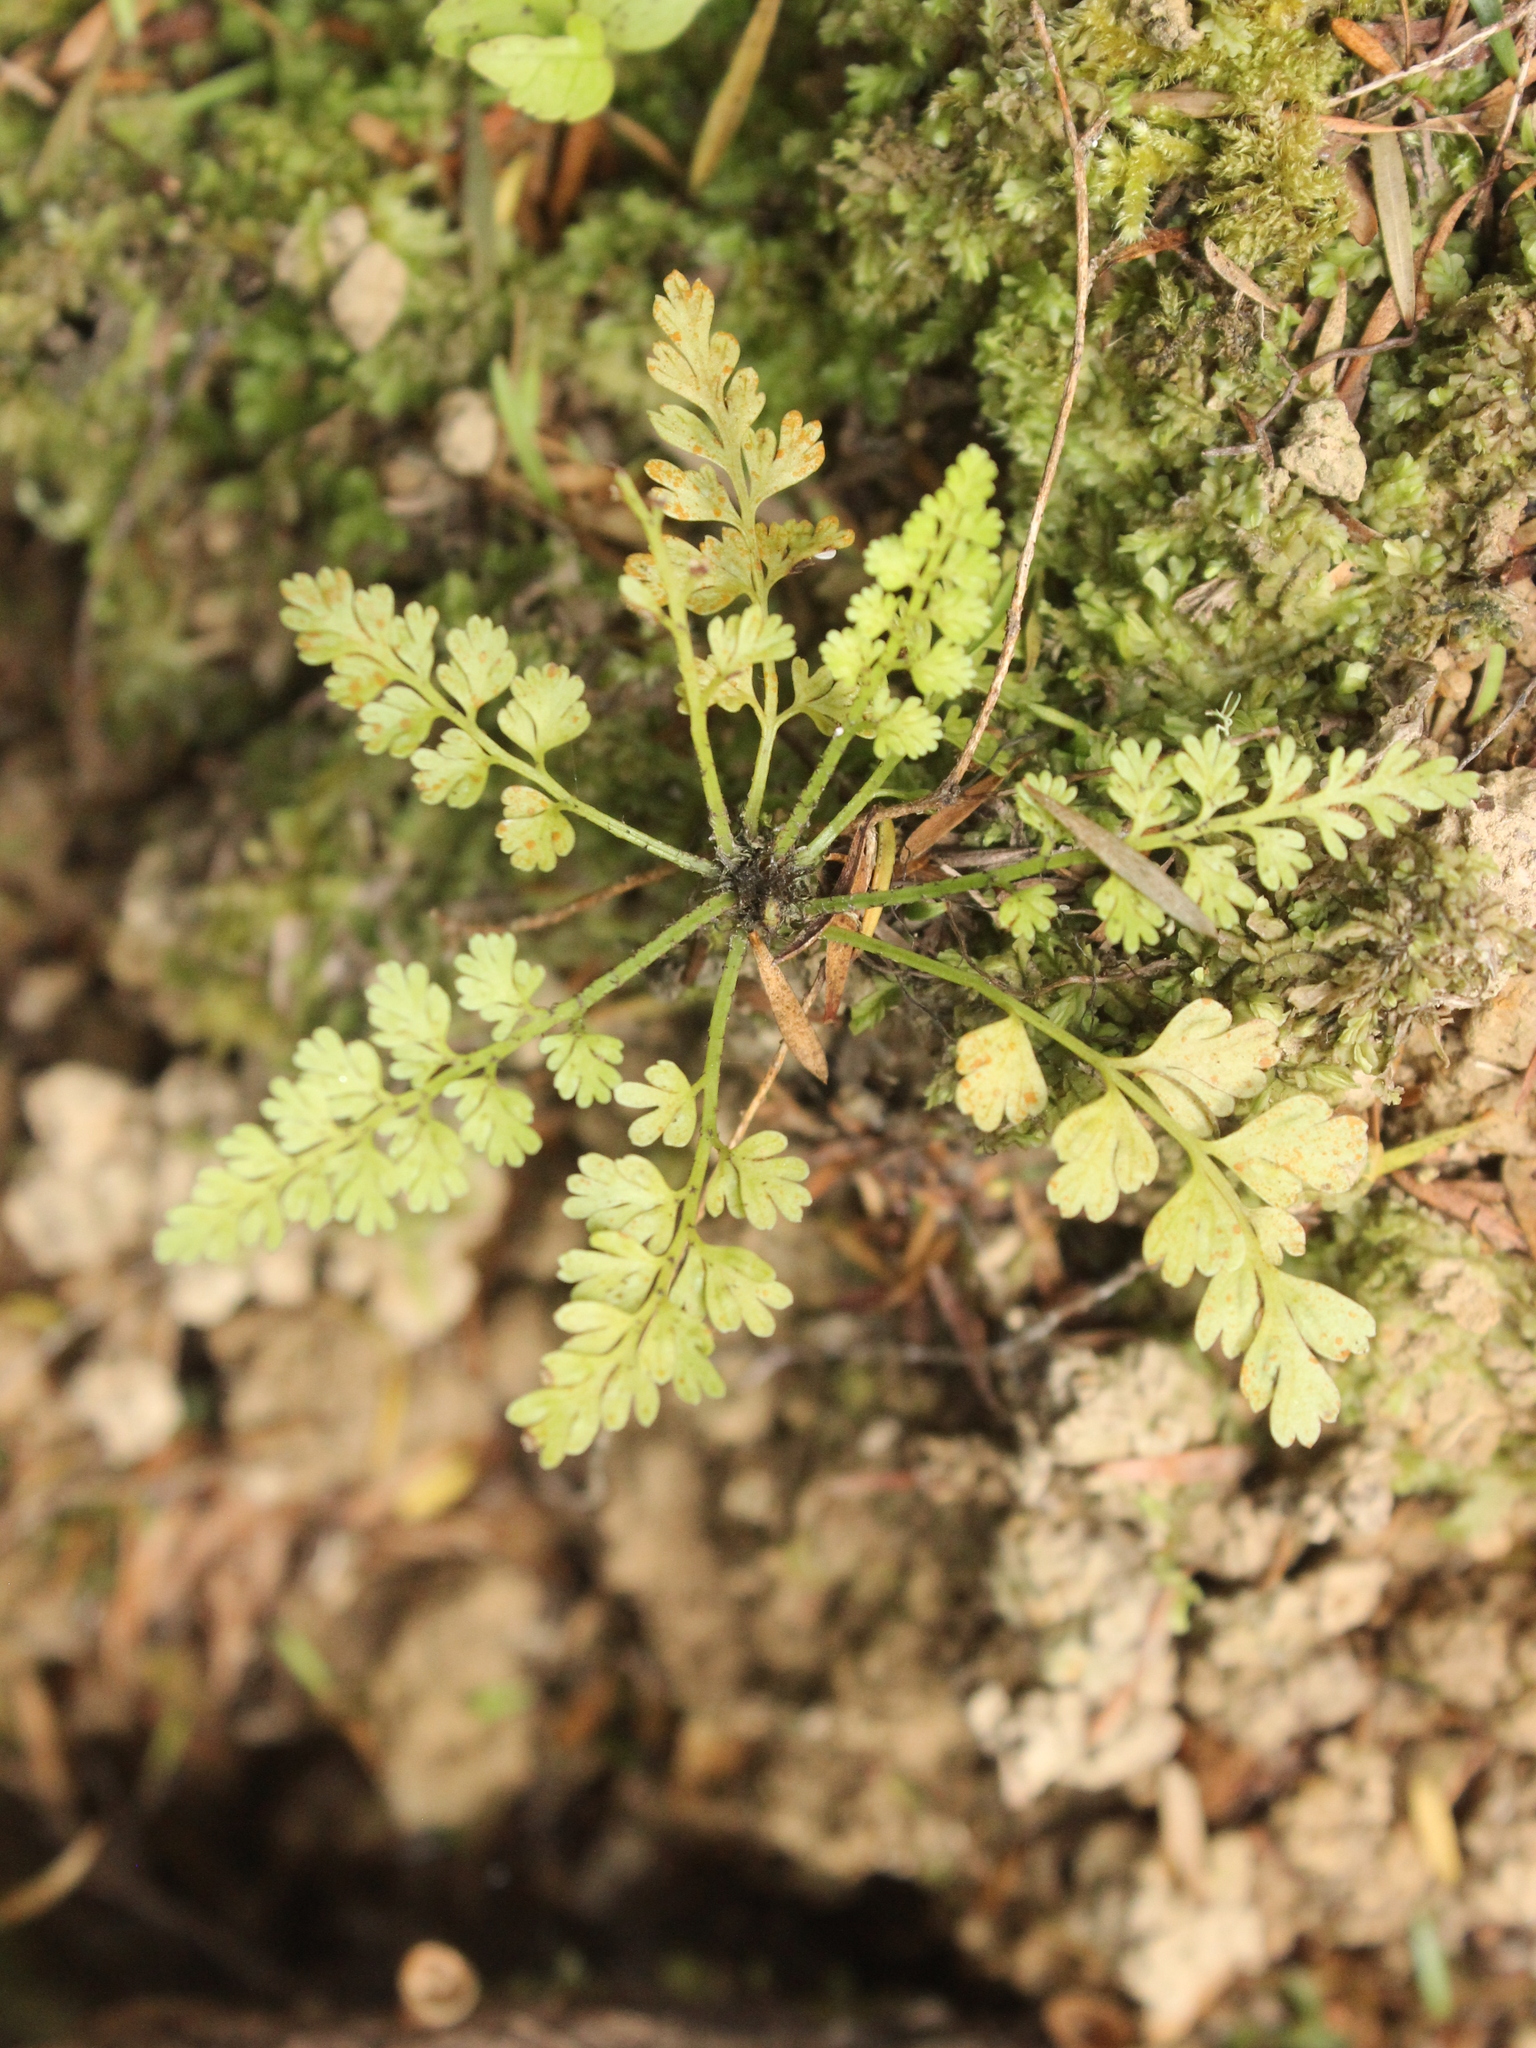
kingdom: Plantae
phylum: Tracheophyta
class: Polypodiopsida
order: Polypodiales
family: Aspleniaceae
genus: Asplenium
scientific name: Asplenium hookerianum
